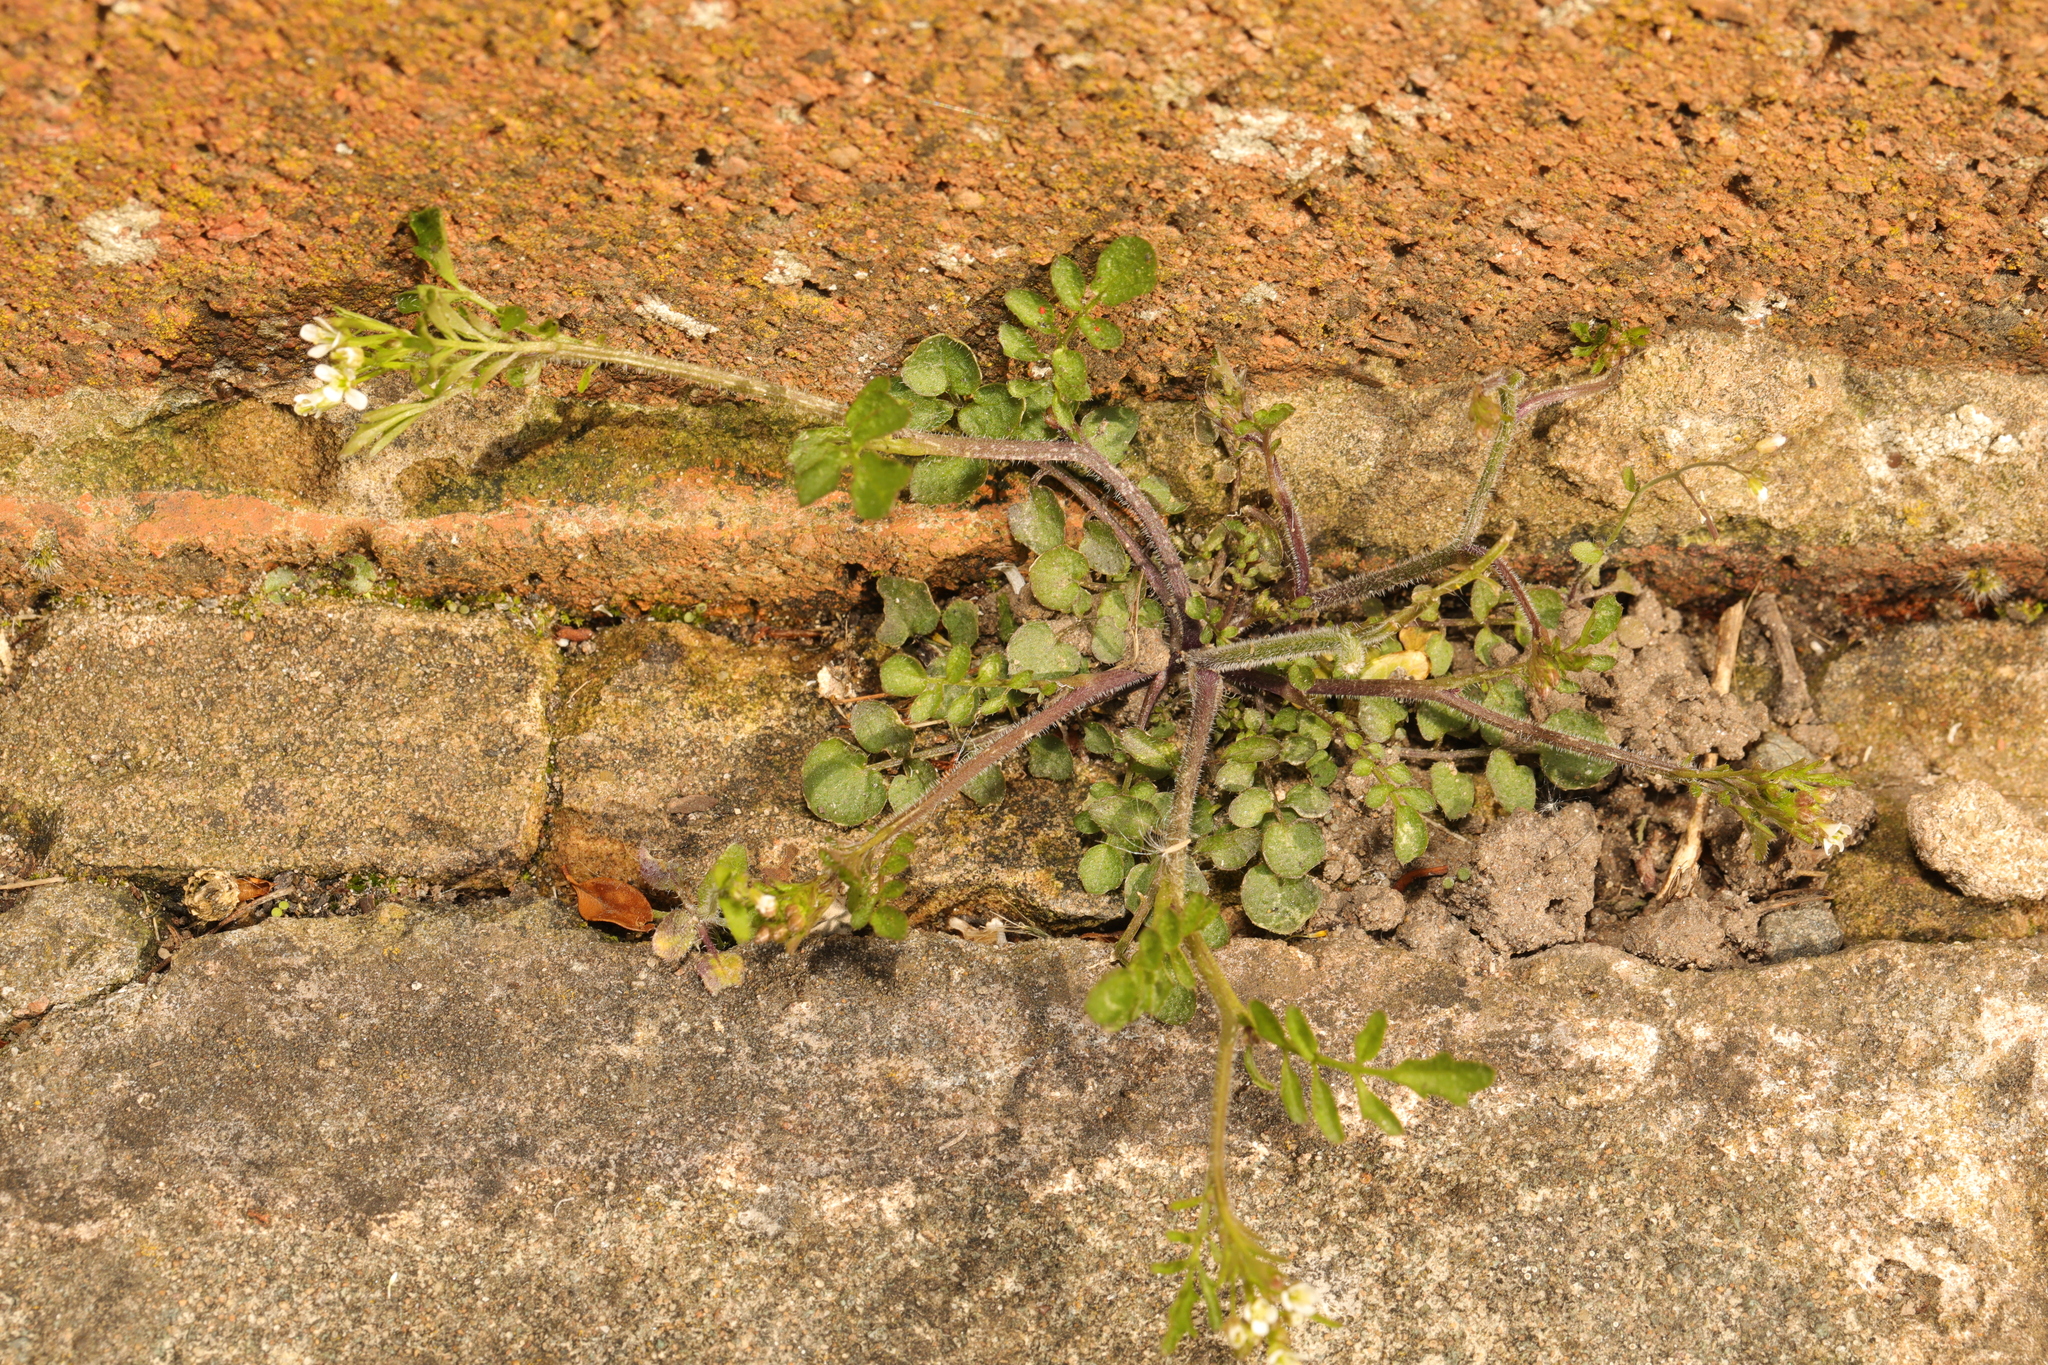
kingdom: Plantae
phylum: Tracheophyta
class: Magnoliopsida
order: Brassicales
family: Brassicaceae
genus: Cardamine
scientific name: Cardamine flexuosa
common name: Woodland bittercress
